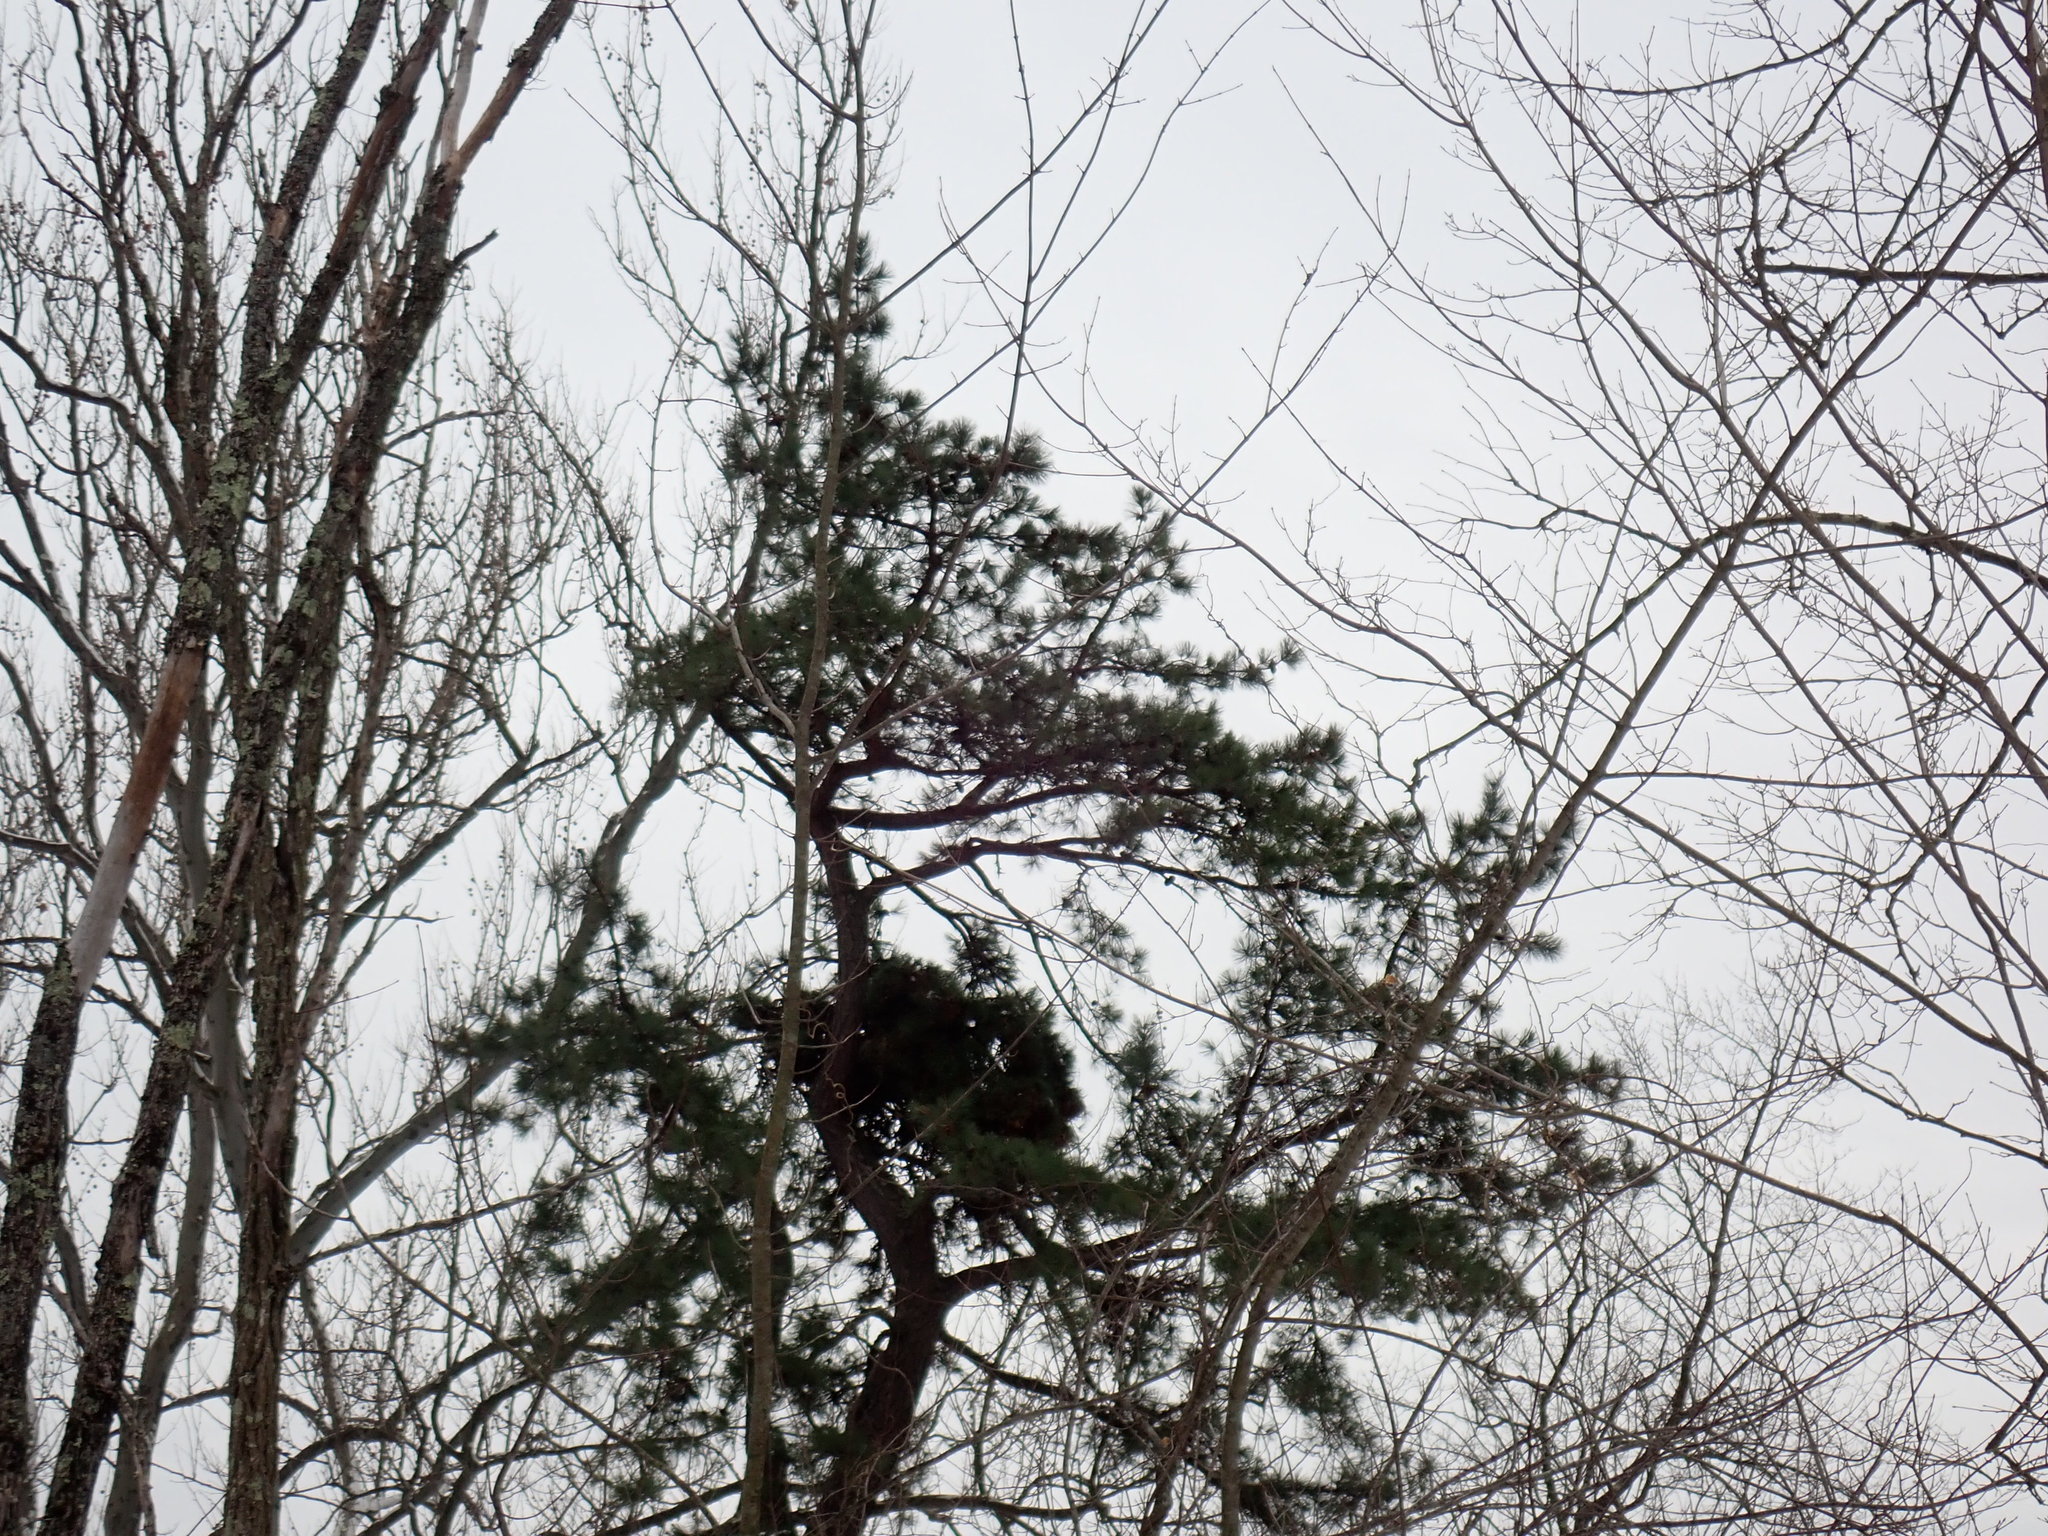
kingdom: Plantae
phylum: Tracheophyta
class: Pinopsida
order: Pinales
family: Pinaceae
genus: Pinus
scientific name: Pinus rigida
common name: Pitch pine
